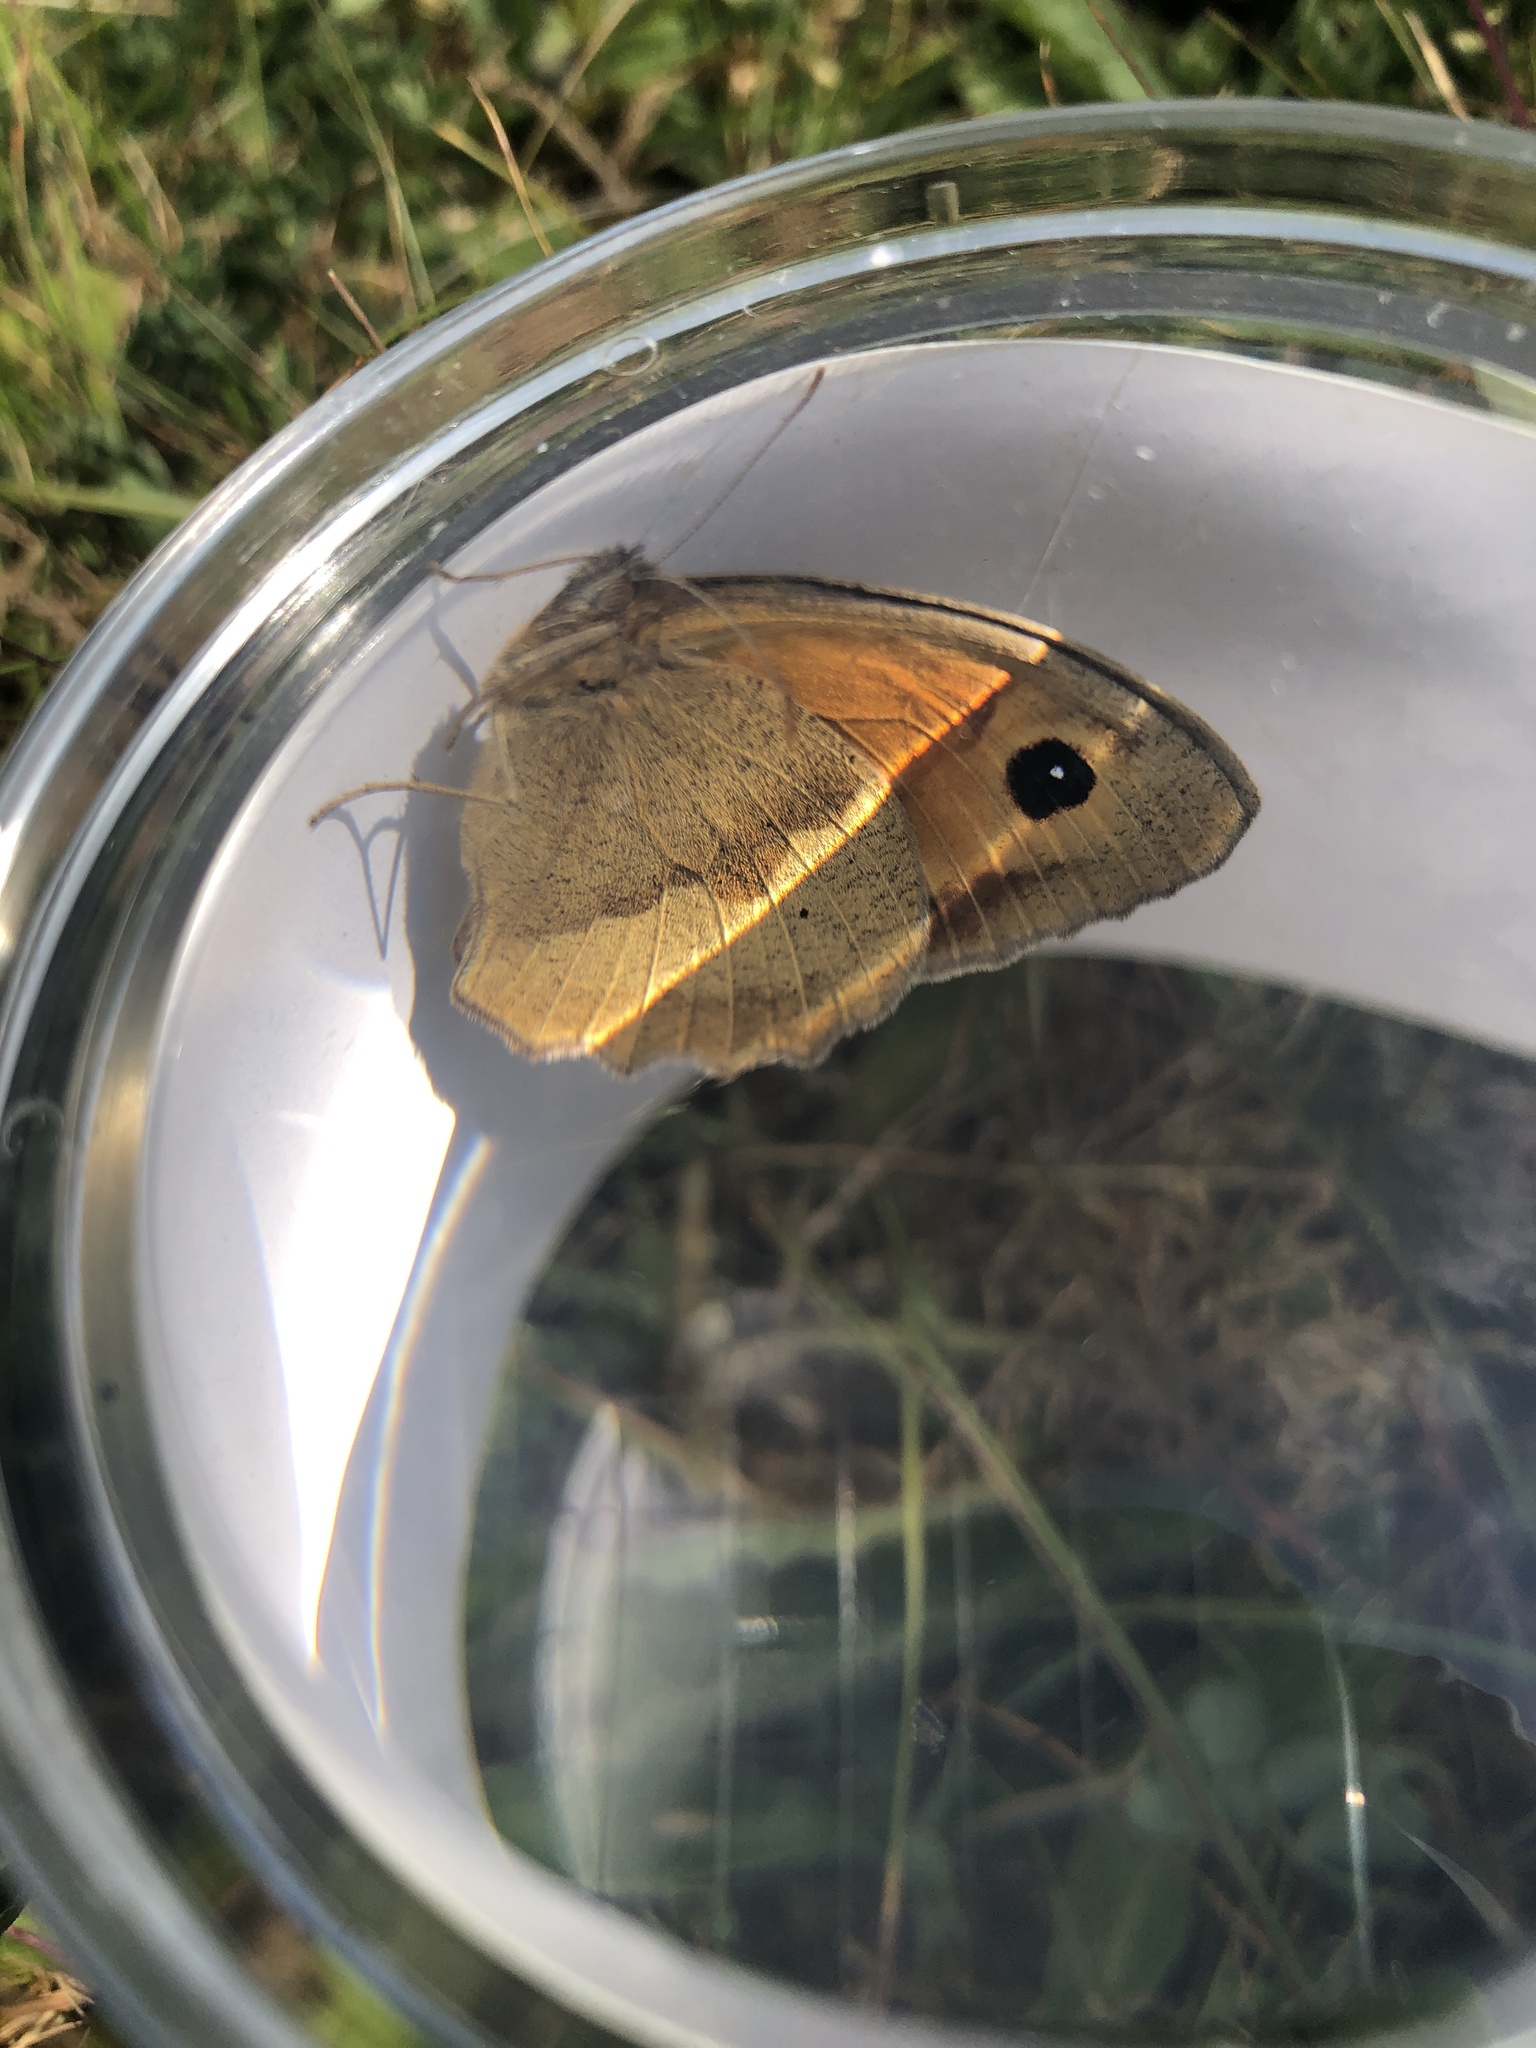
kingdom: Animalia
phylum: Arthropoda
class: Insecta
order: Lepidoptera
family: Nymphalidae
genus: Maniola
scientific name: Maniola jurtina
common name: Meadow brown
